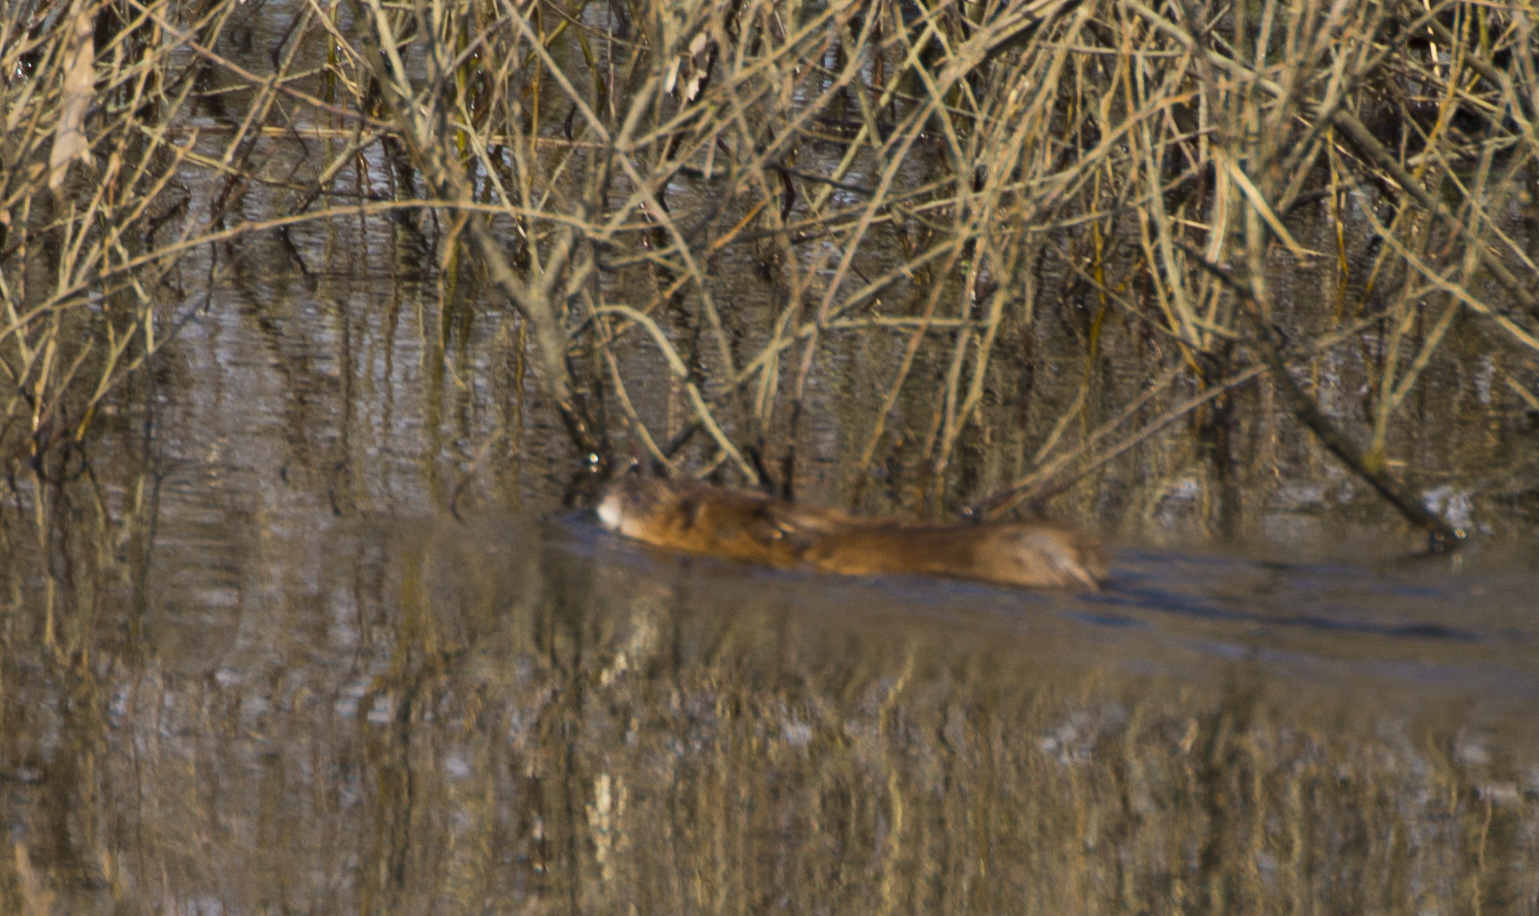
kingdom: Animalia
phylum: Chordata
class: Mammalia
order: Rodentia
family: Cricetidae
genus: Ondatra
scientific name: Ondatra zibethicus
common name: Muskrat
